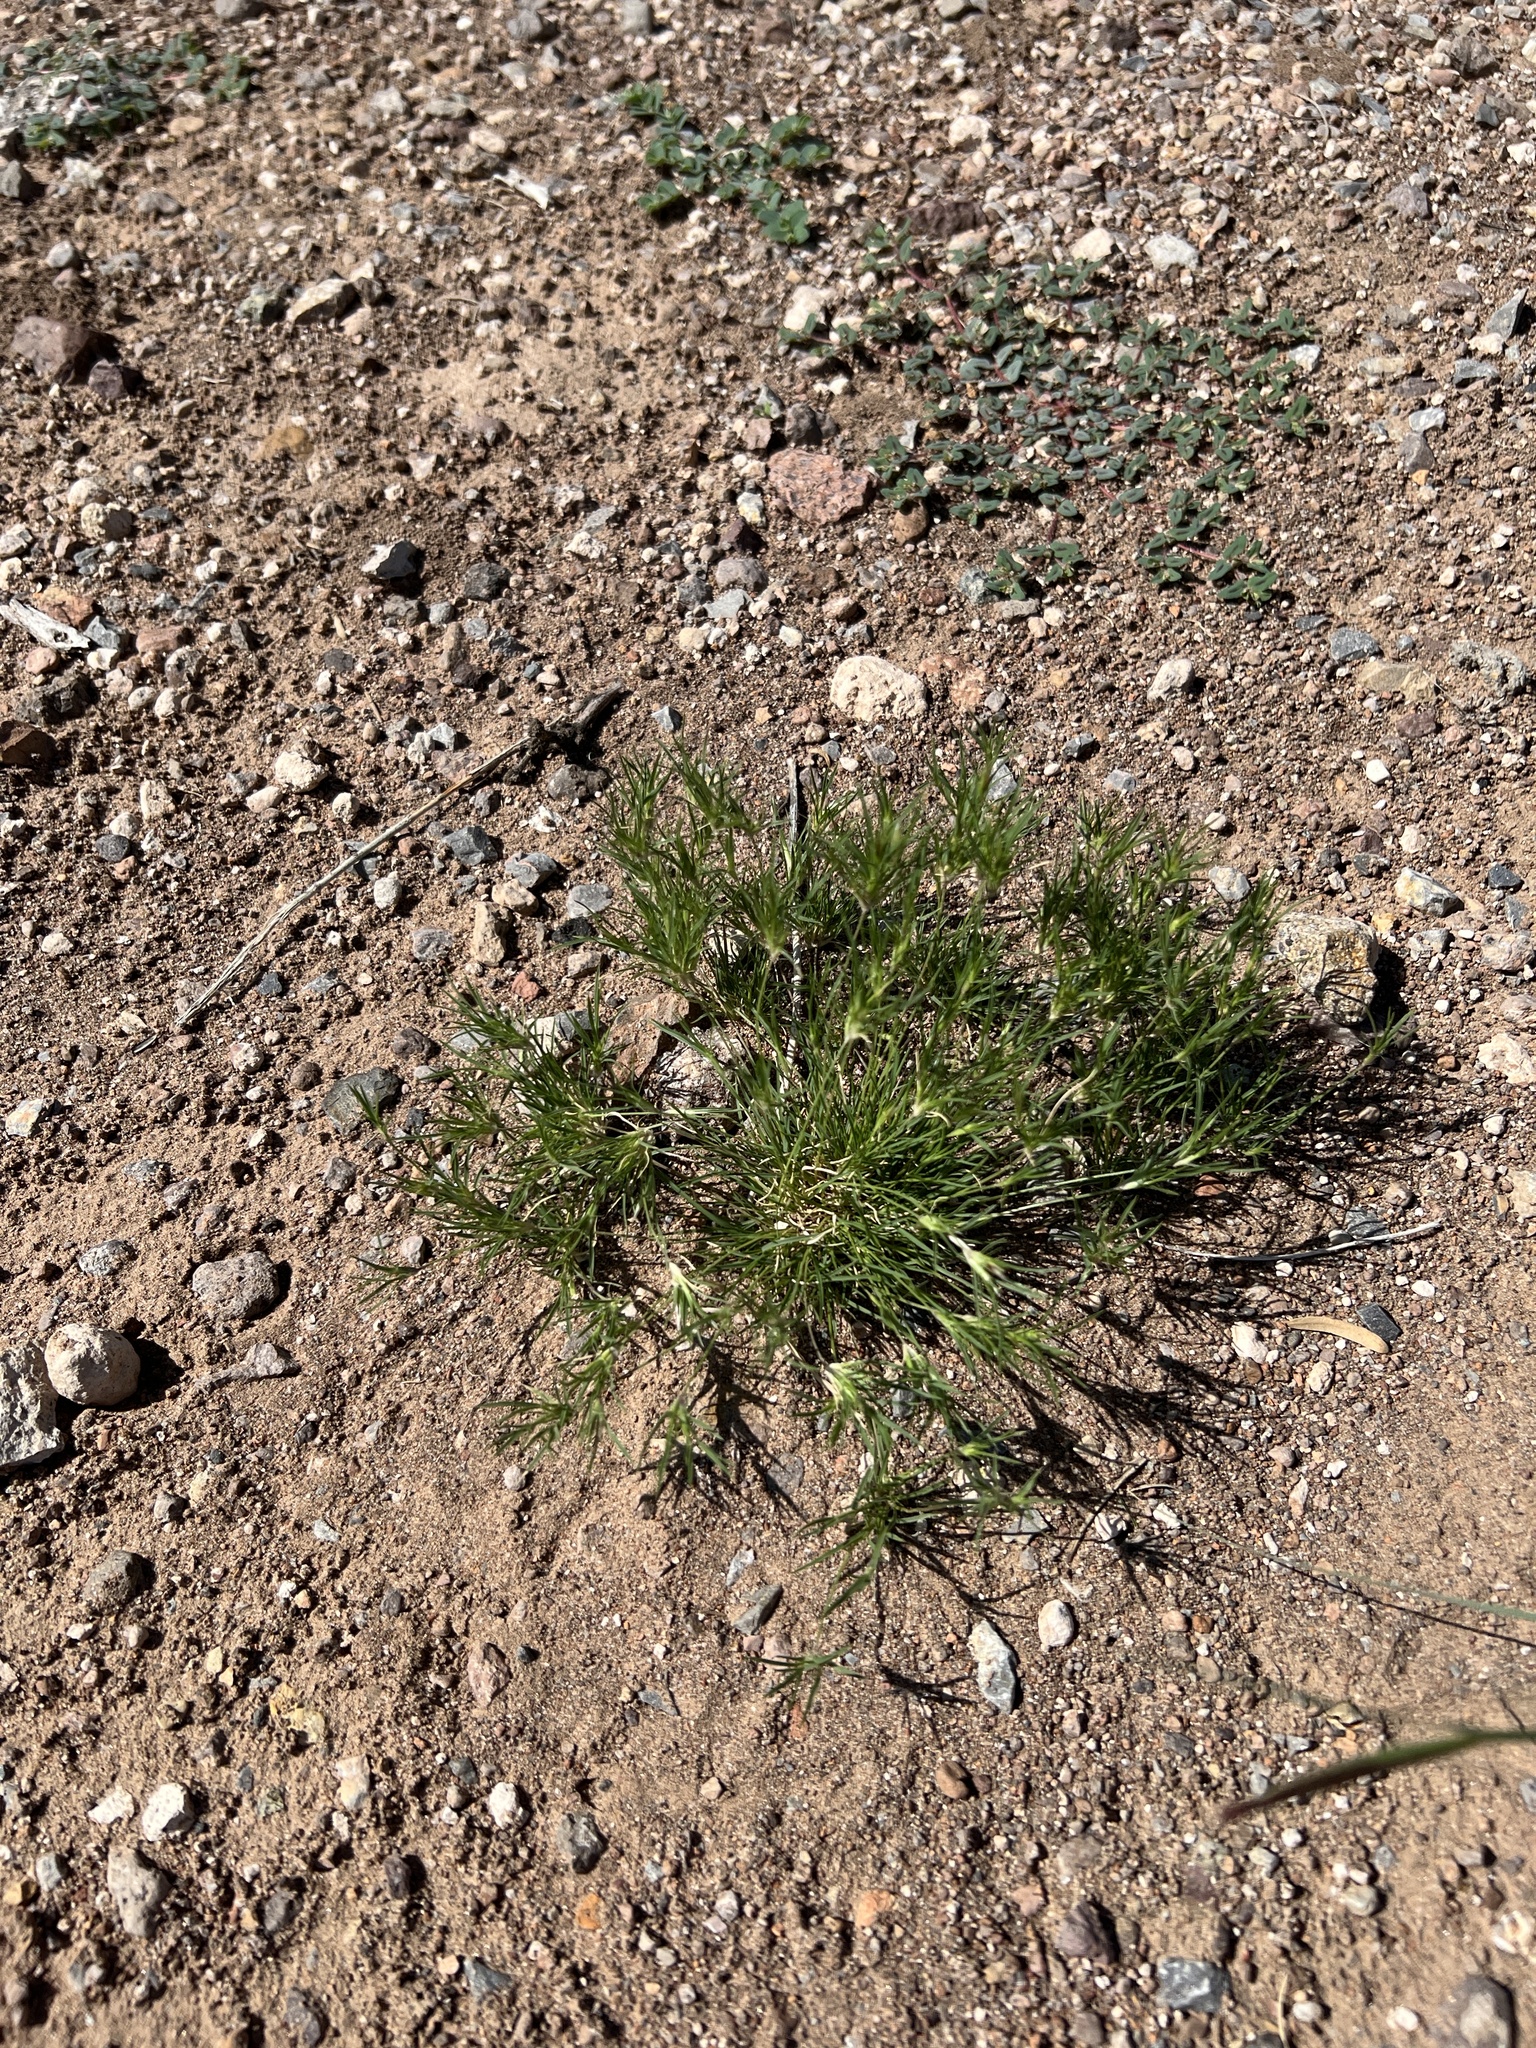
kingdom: Plantae
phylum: Tracheophyta
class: Liliopsida
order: Poales
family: Poaceae
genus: Dasyochloa
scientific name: Dasyochloa pulchella
